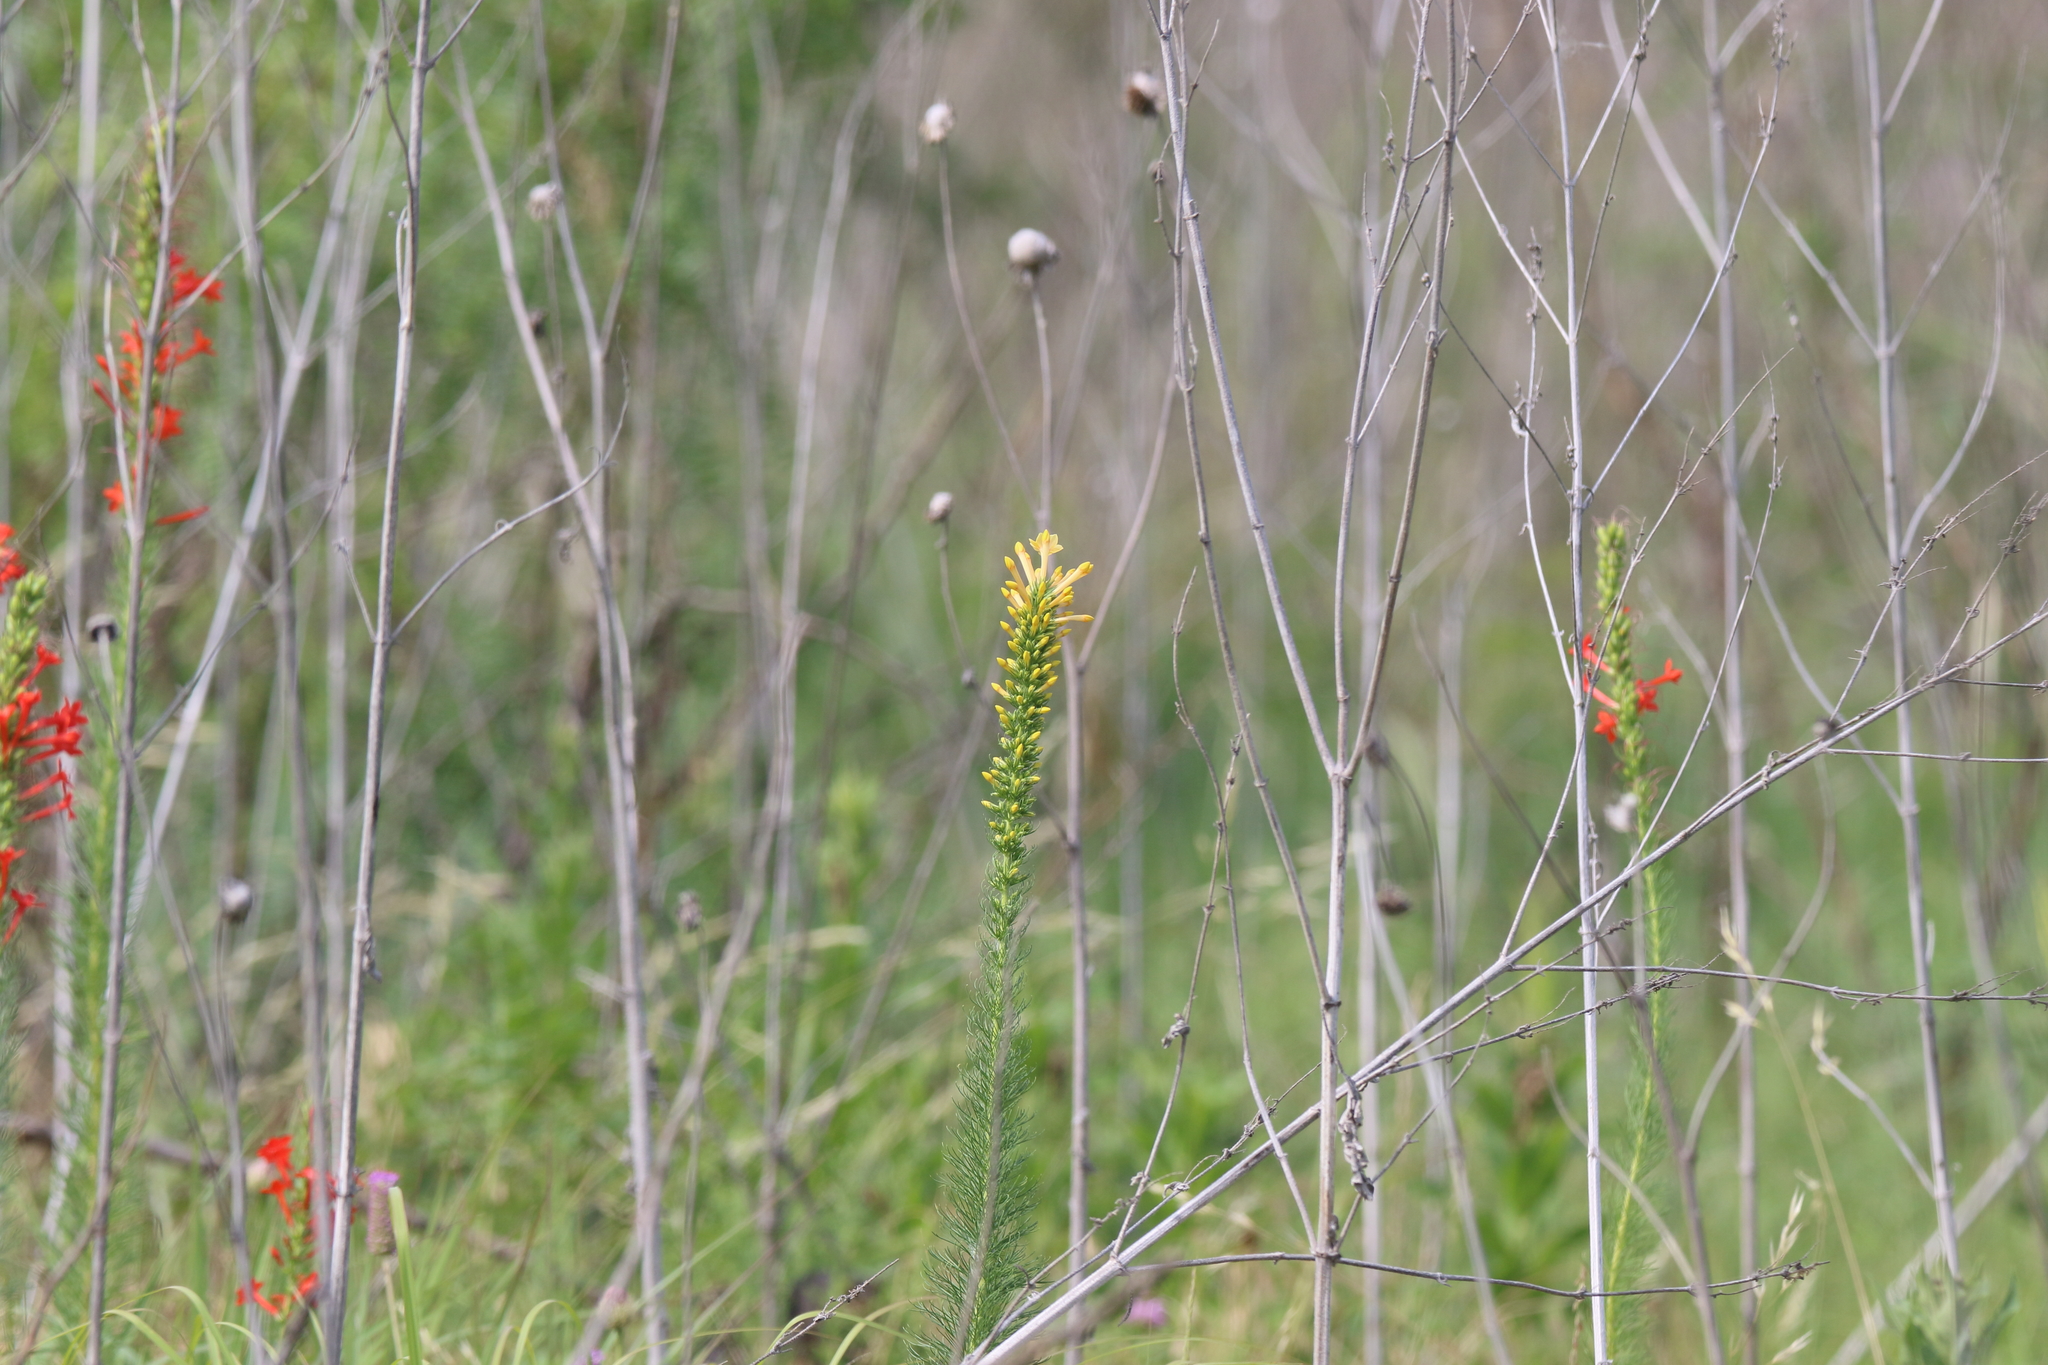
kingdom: Plantae
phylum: Tracheophyta
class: Magnoliopsida
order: Ericales
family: Polemoniaceae
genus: Ipomopsis
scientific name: Ipomopsis rubra
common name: Skyrocket
